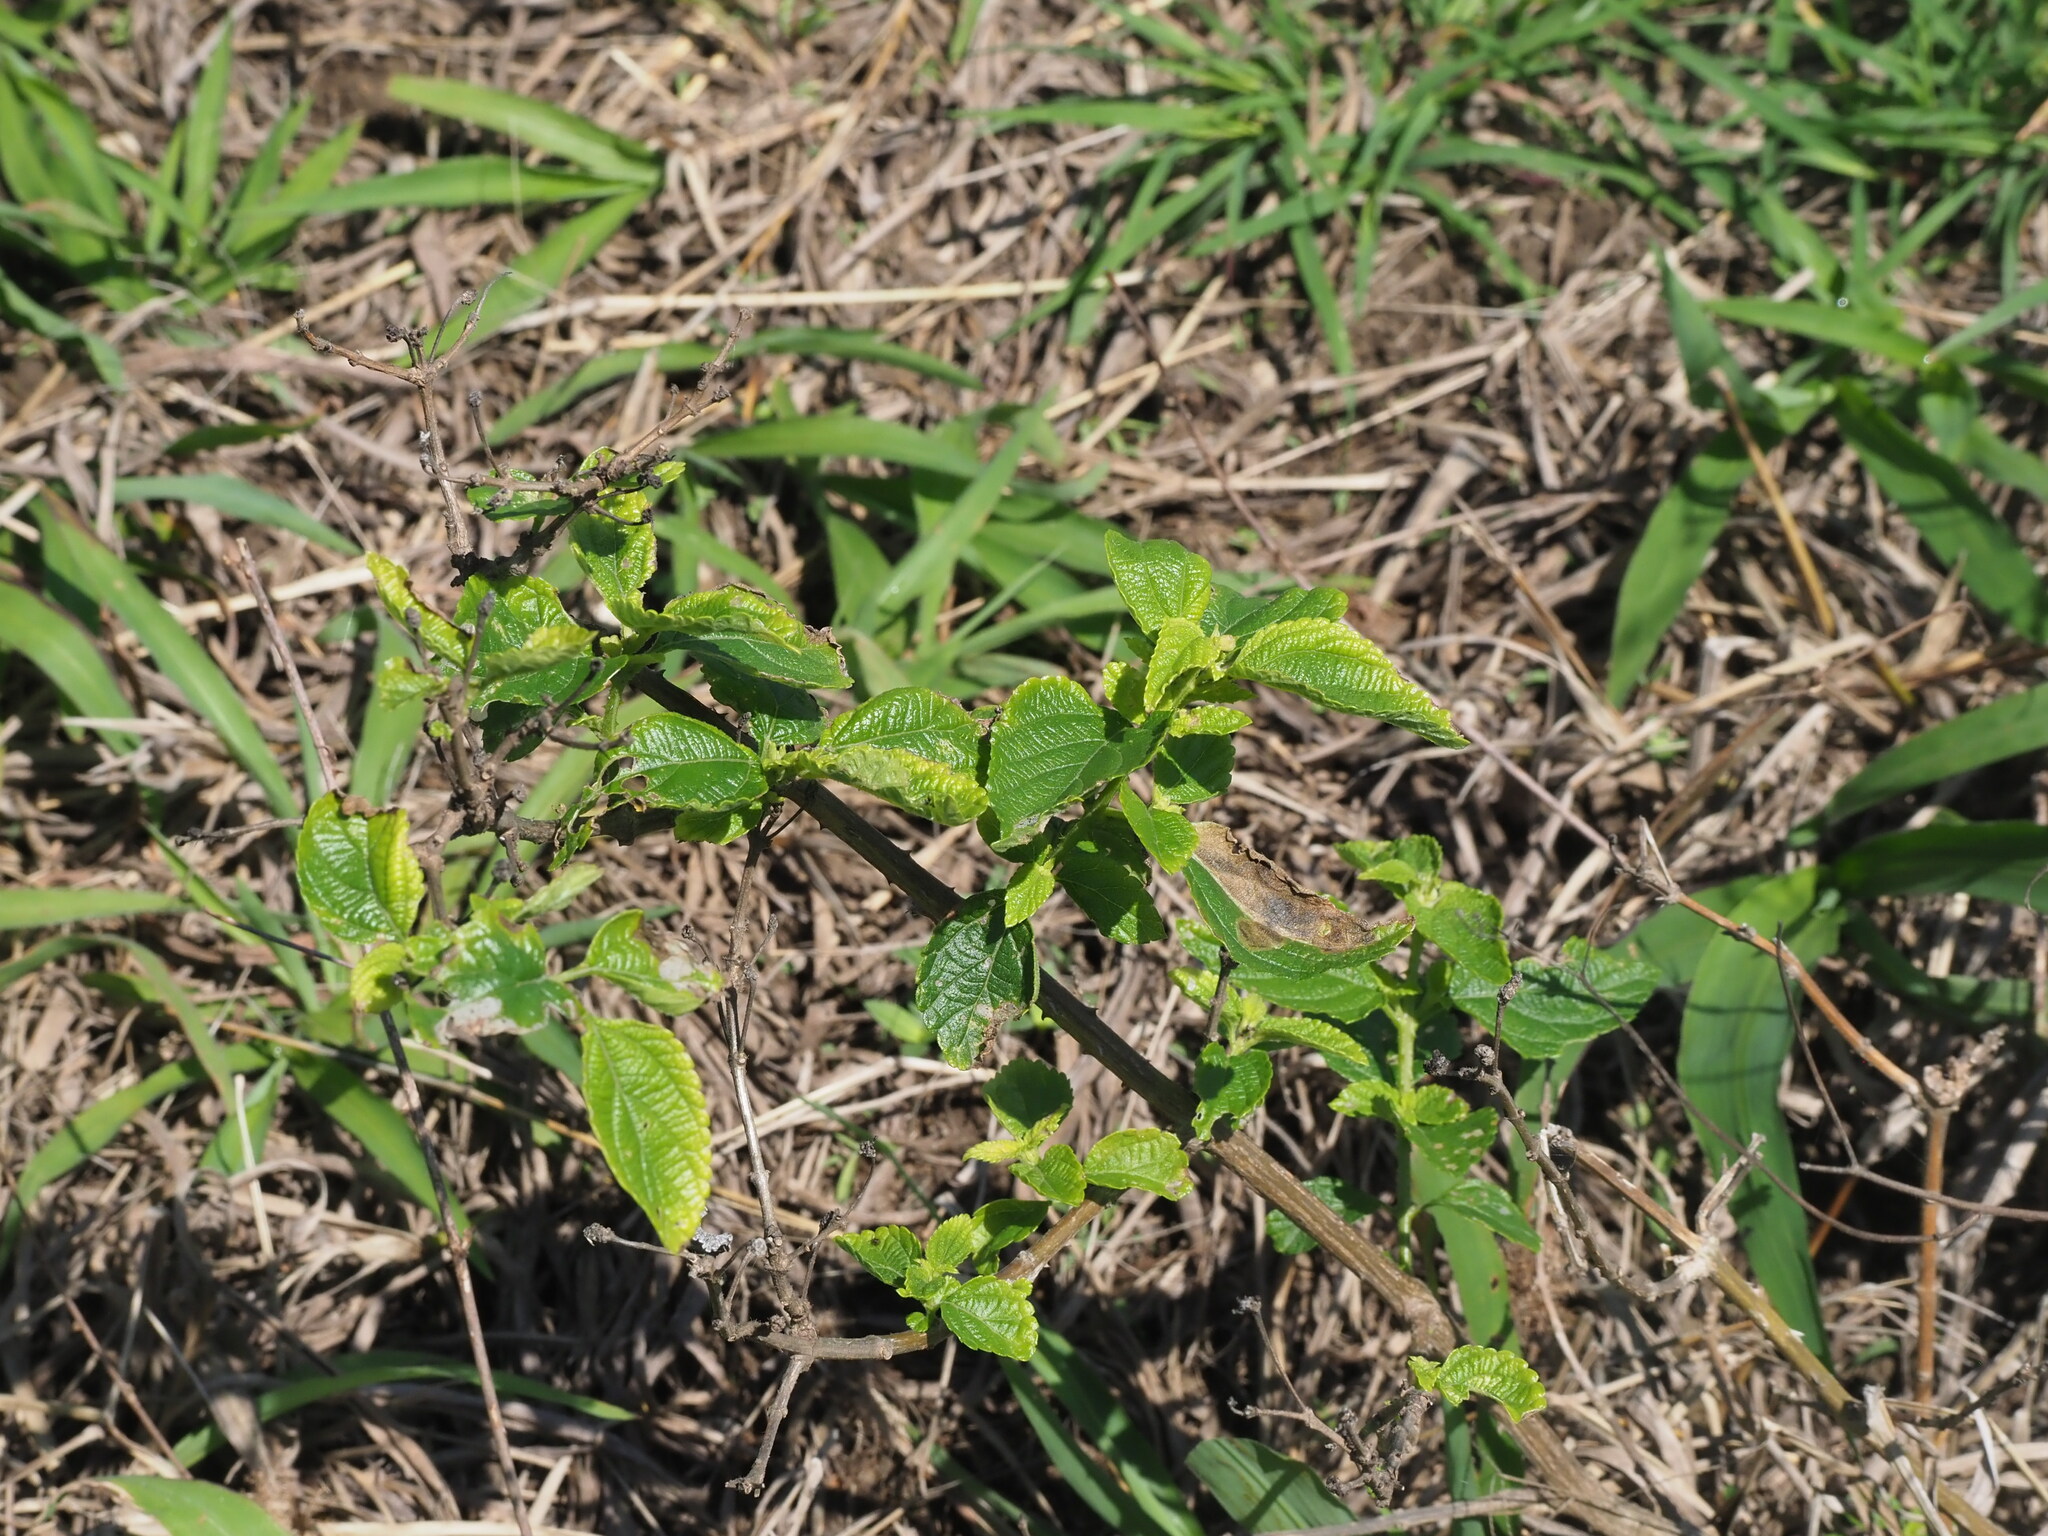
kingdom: Plantae
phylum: Tracheophyta
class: Magnoliopsida
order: Lamiales
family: Verbenaceae
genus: Lantana
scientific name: Lantana camara
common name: Lantana
